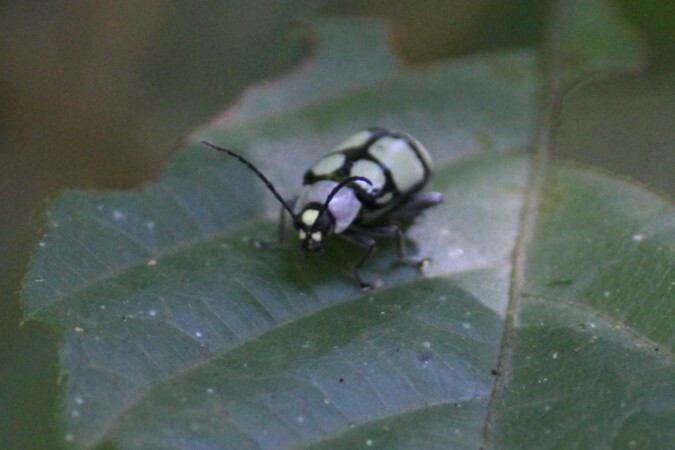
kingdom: Animalia
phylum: Arthropoda
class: Insecta
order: Coleoptera
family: Chrysomelidae
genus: Omophoita
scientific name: Omophoita
